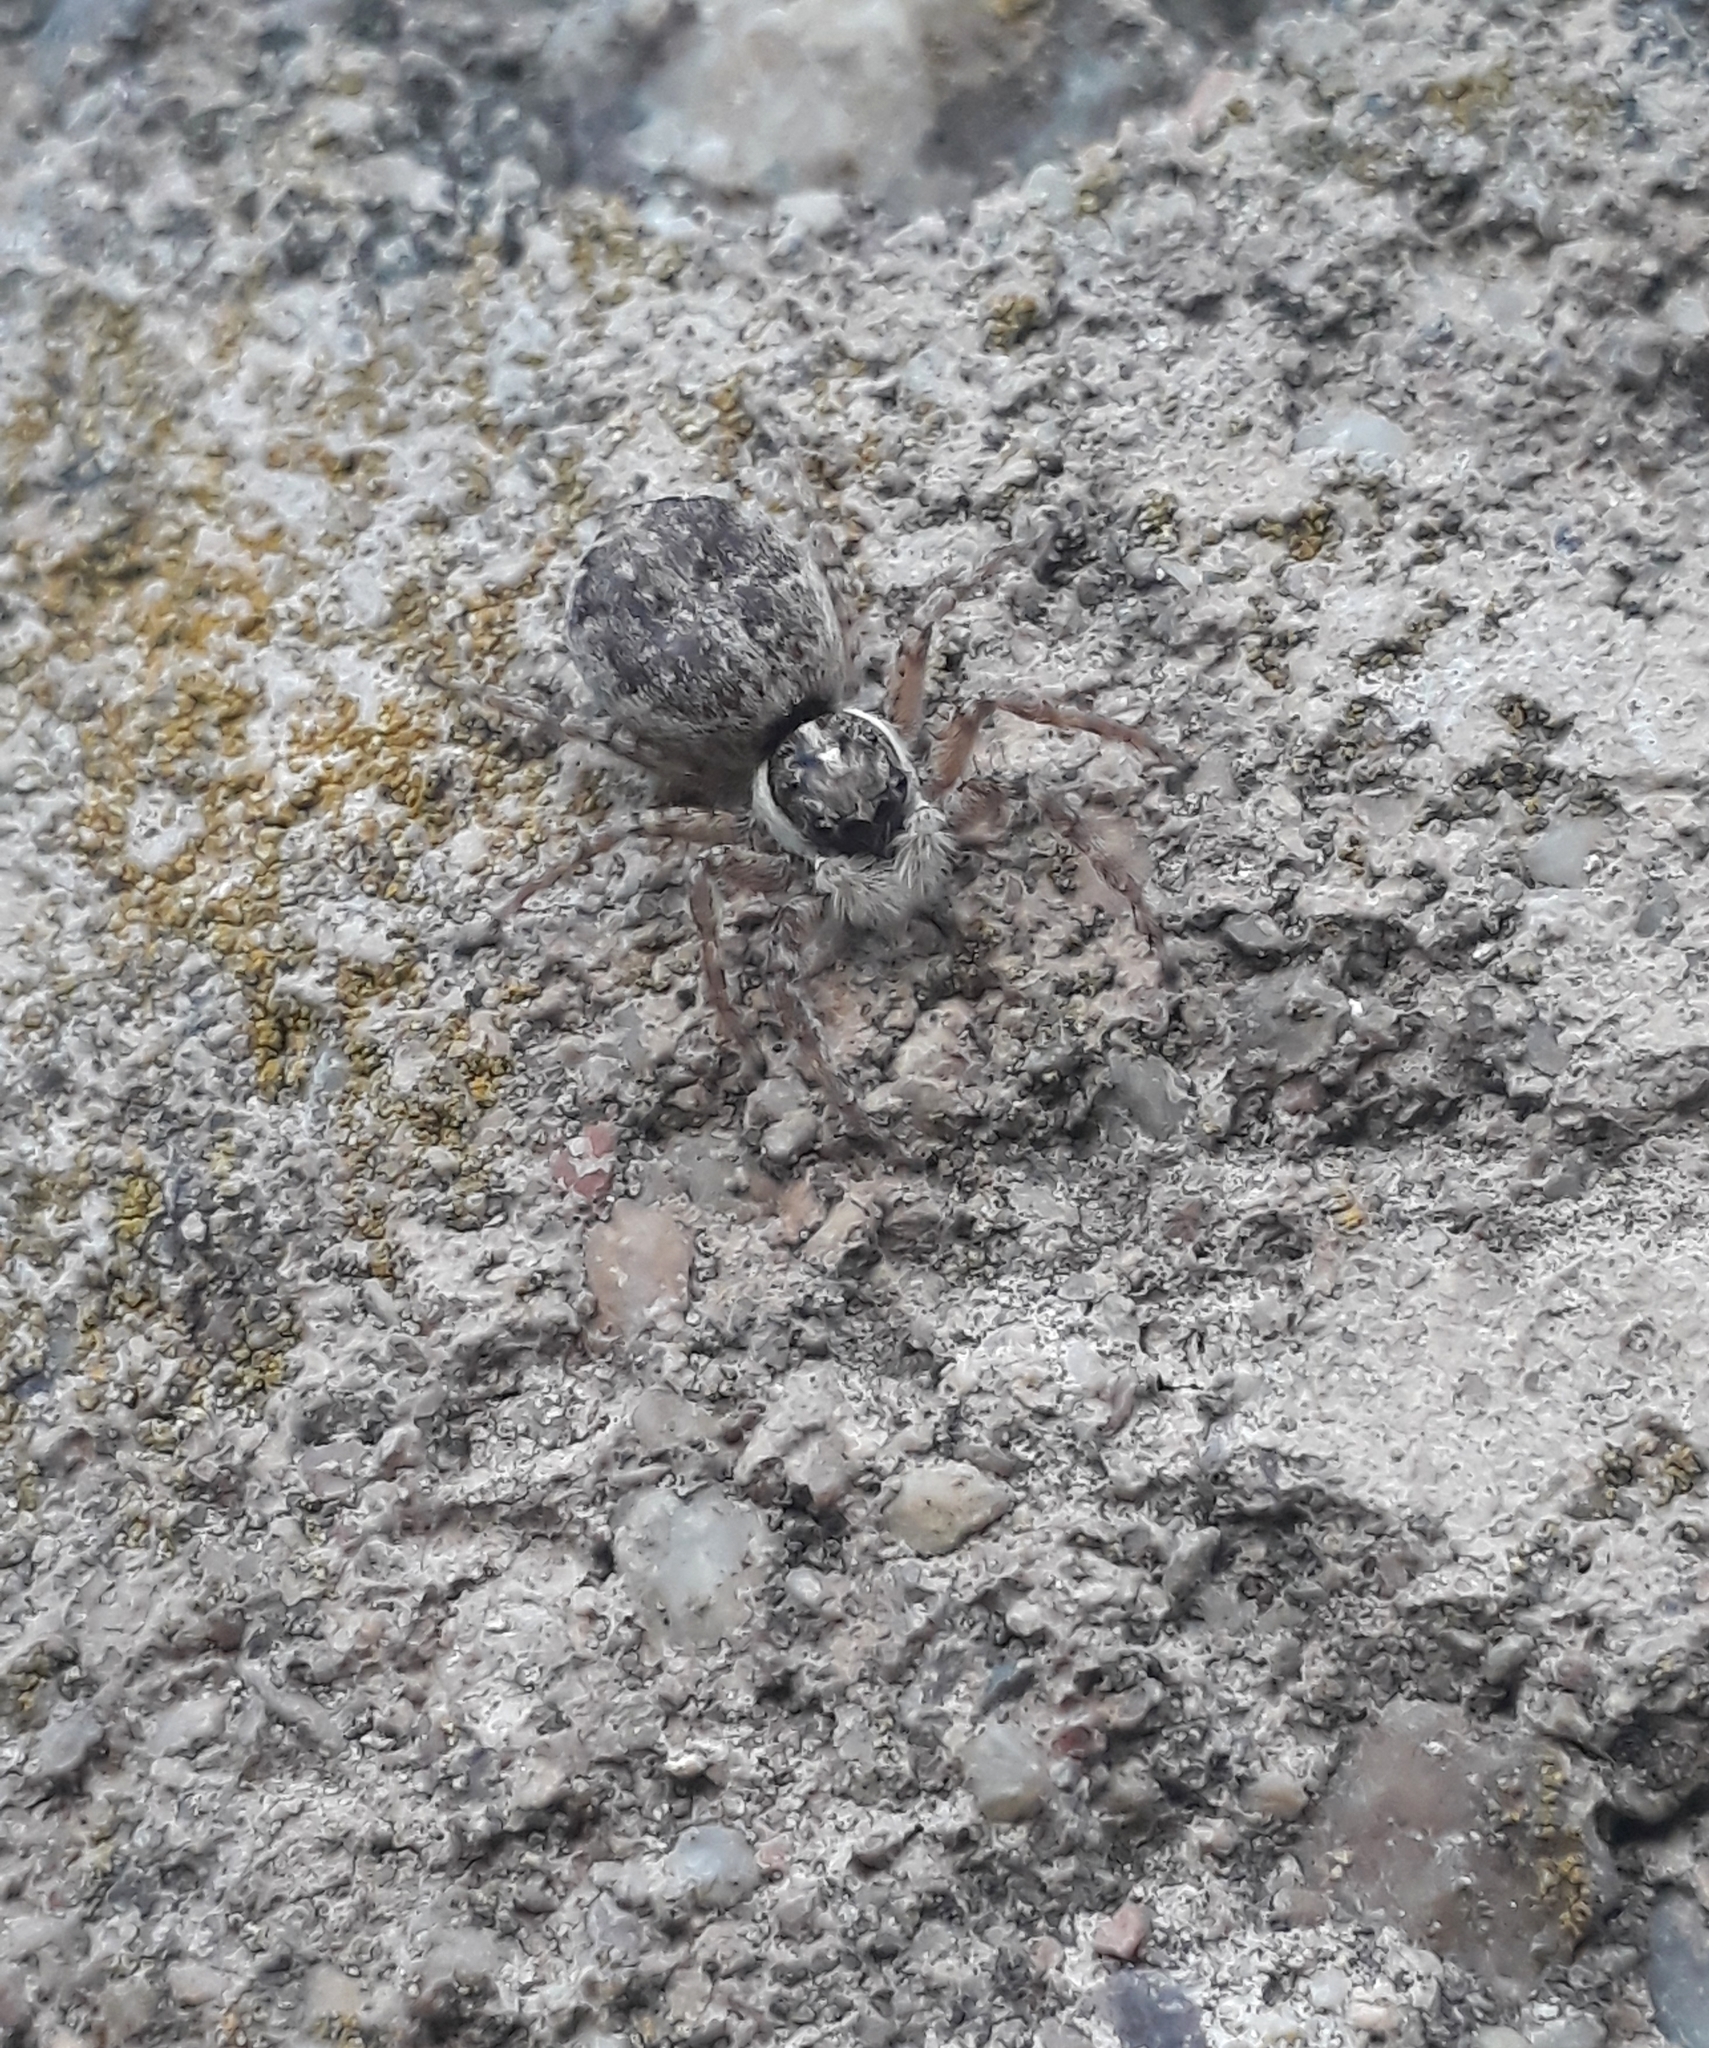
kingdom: Animalia
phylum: Arthropoda
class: Arachnida
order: Araneae
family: Salticidae
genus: Menemerus
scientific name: Menemerus semilimbatus
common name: Jumping spider
